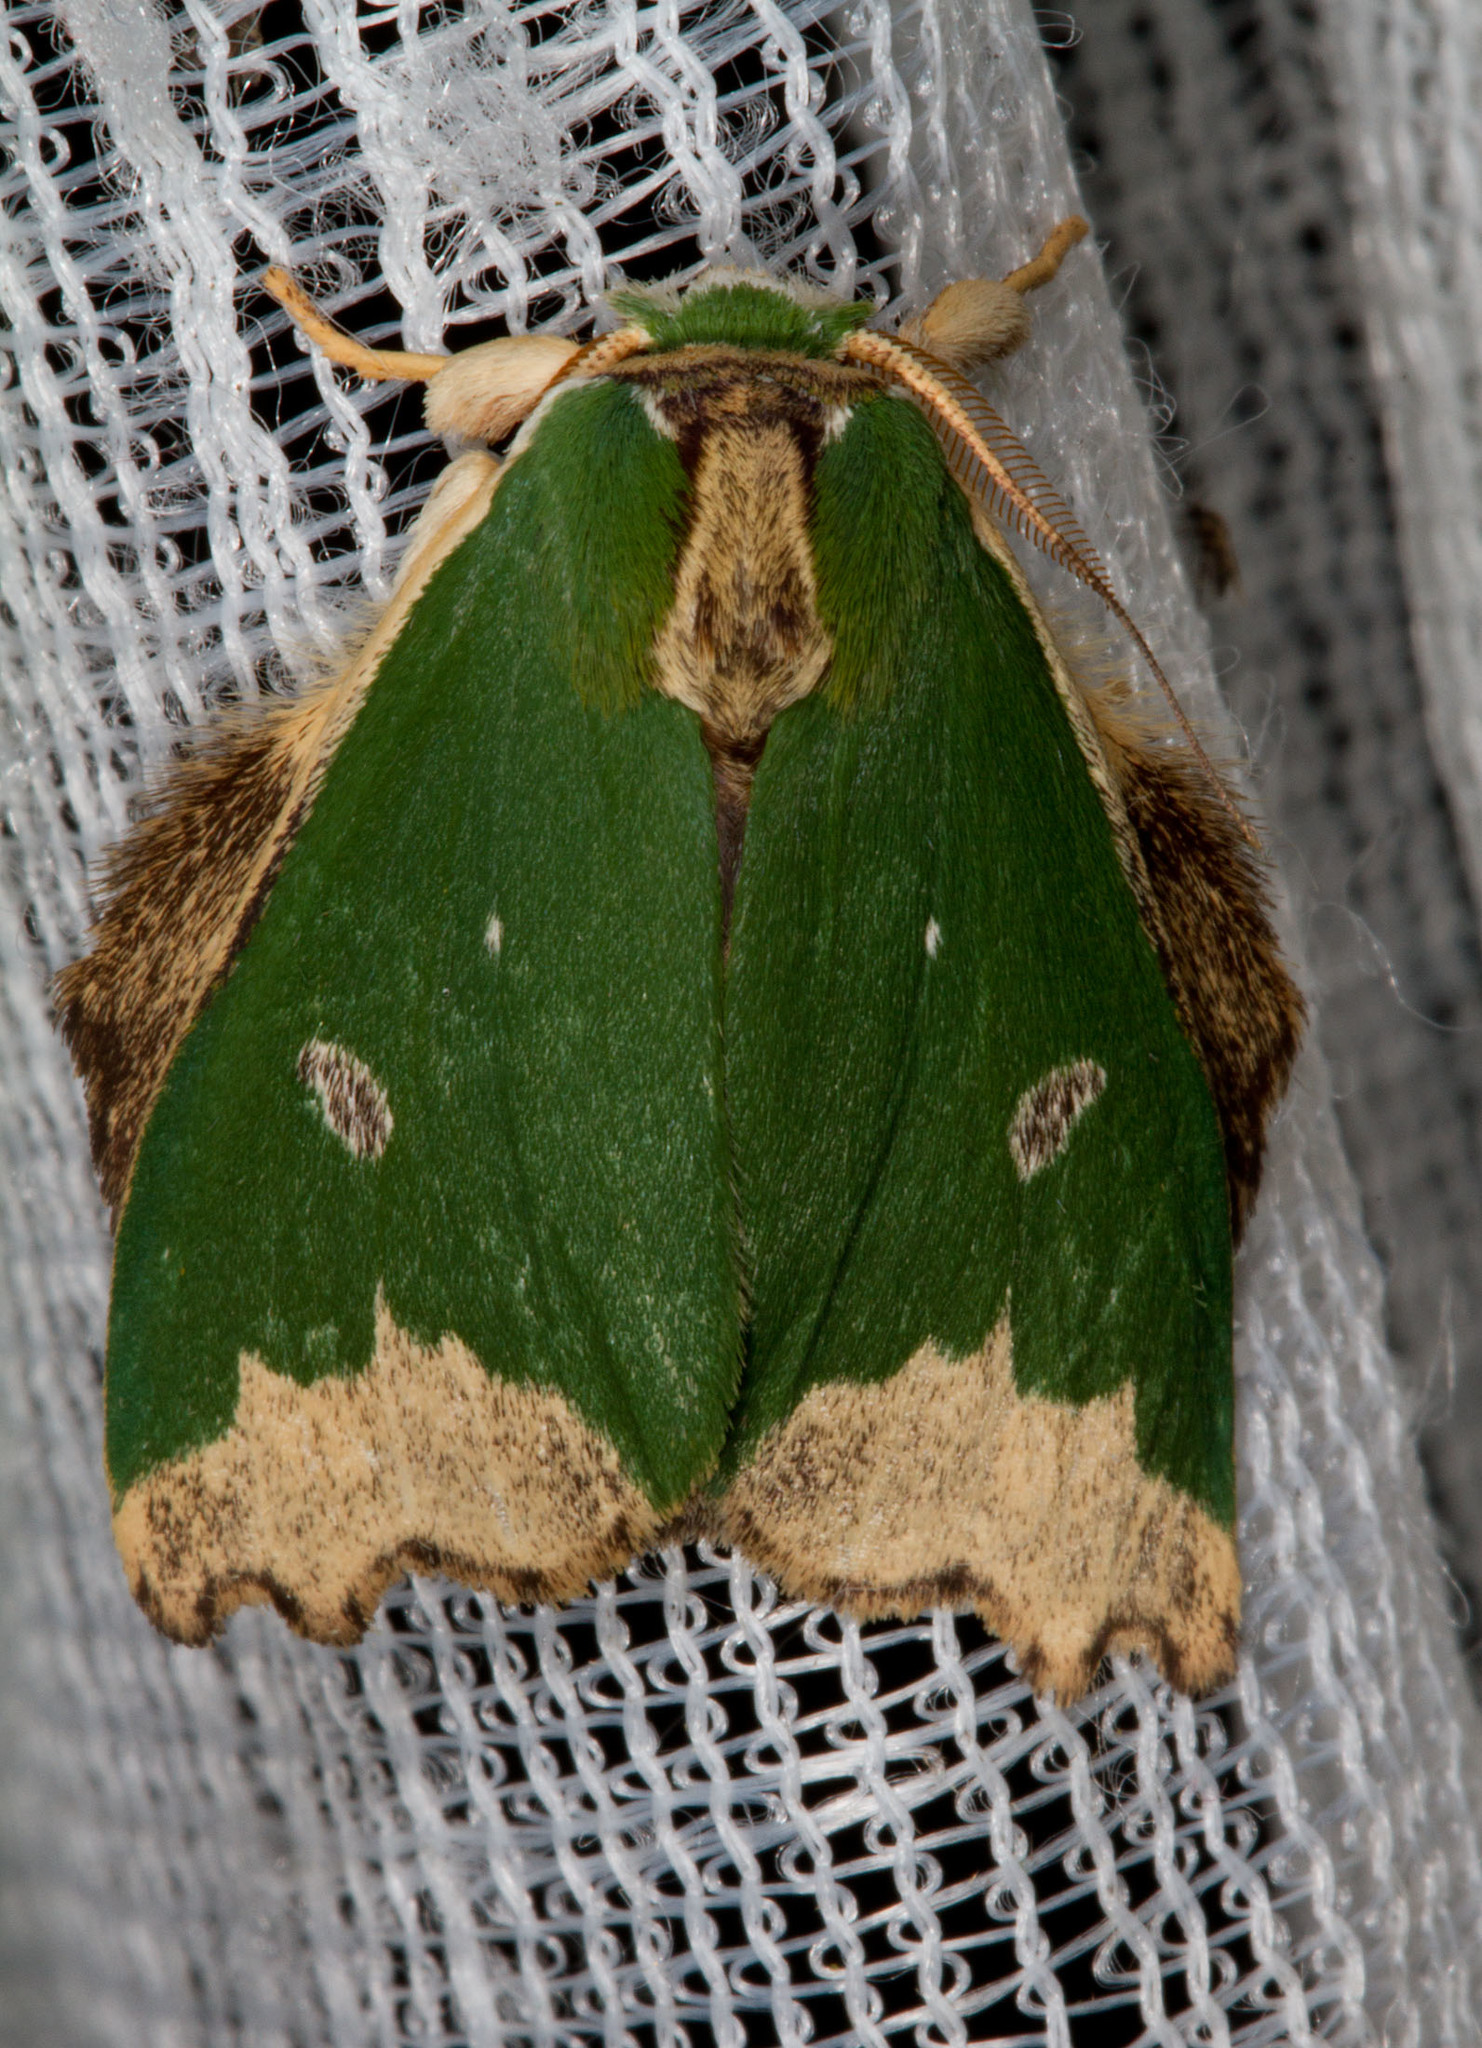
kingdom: Animalia
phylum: Arthropoda
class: Insecta
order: Lepidoptera
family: Notodontidae
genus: Rosema
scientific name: Rosema epigena
